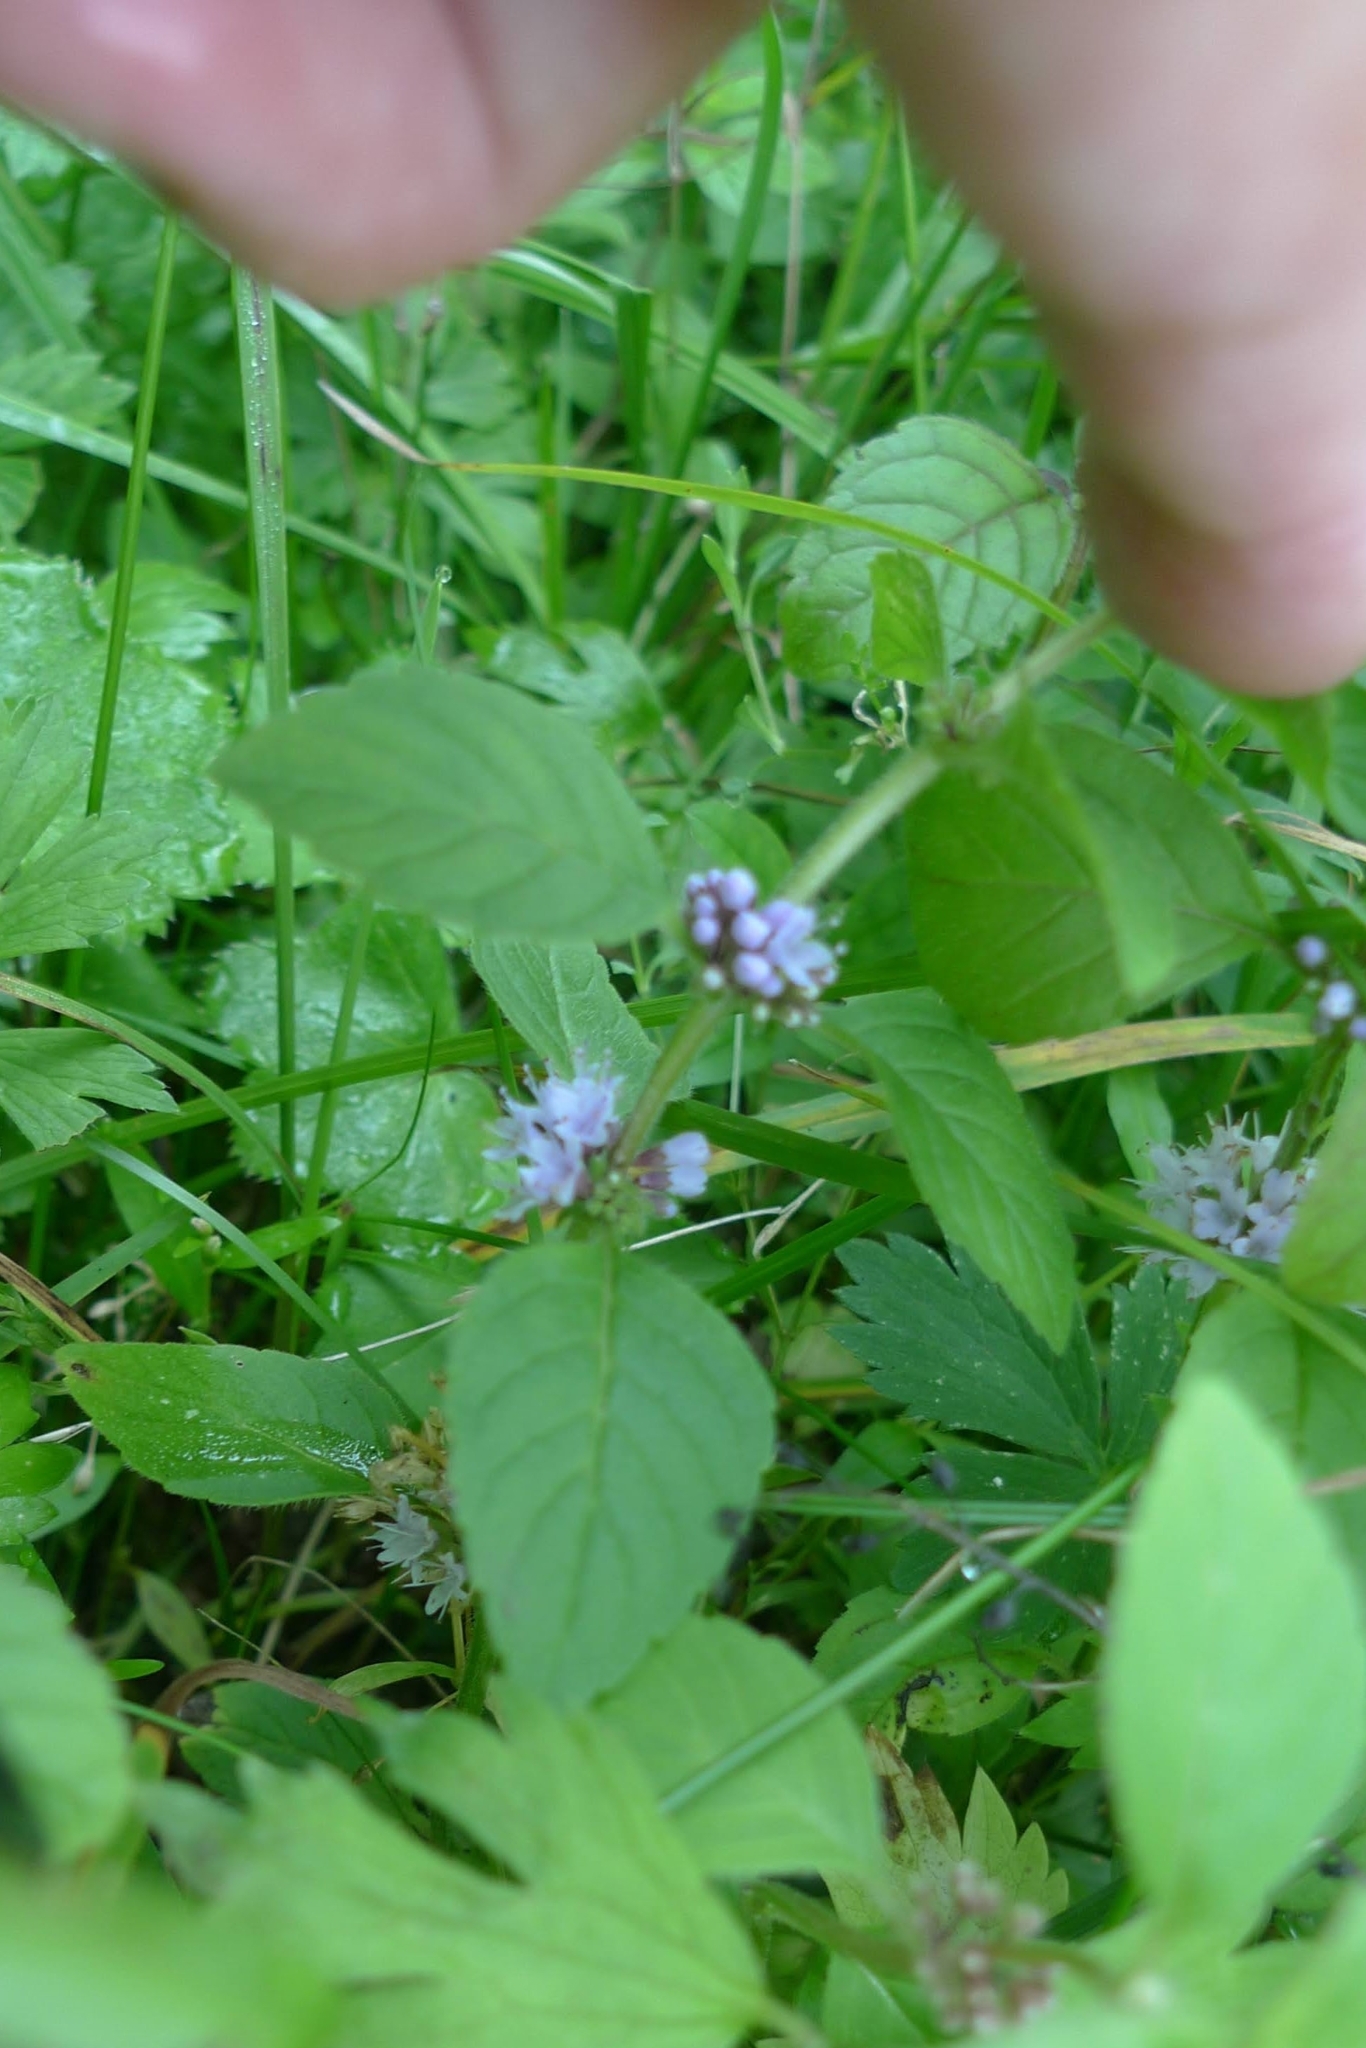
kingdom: Plantae
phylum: Tracheophyta
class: Magnoliopsida
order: Lamiales
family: Lamiaceae
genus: Mentha
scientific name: Mentha arvensis
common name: Corn mint
